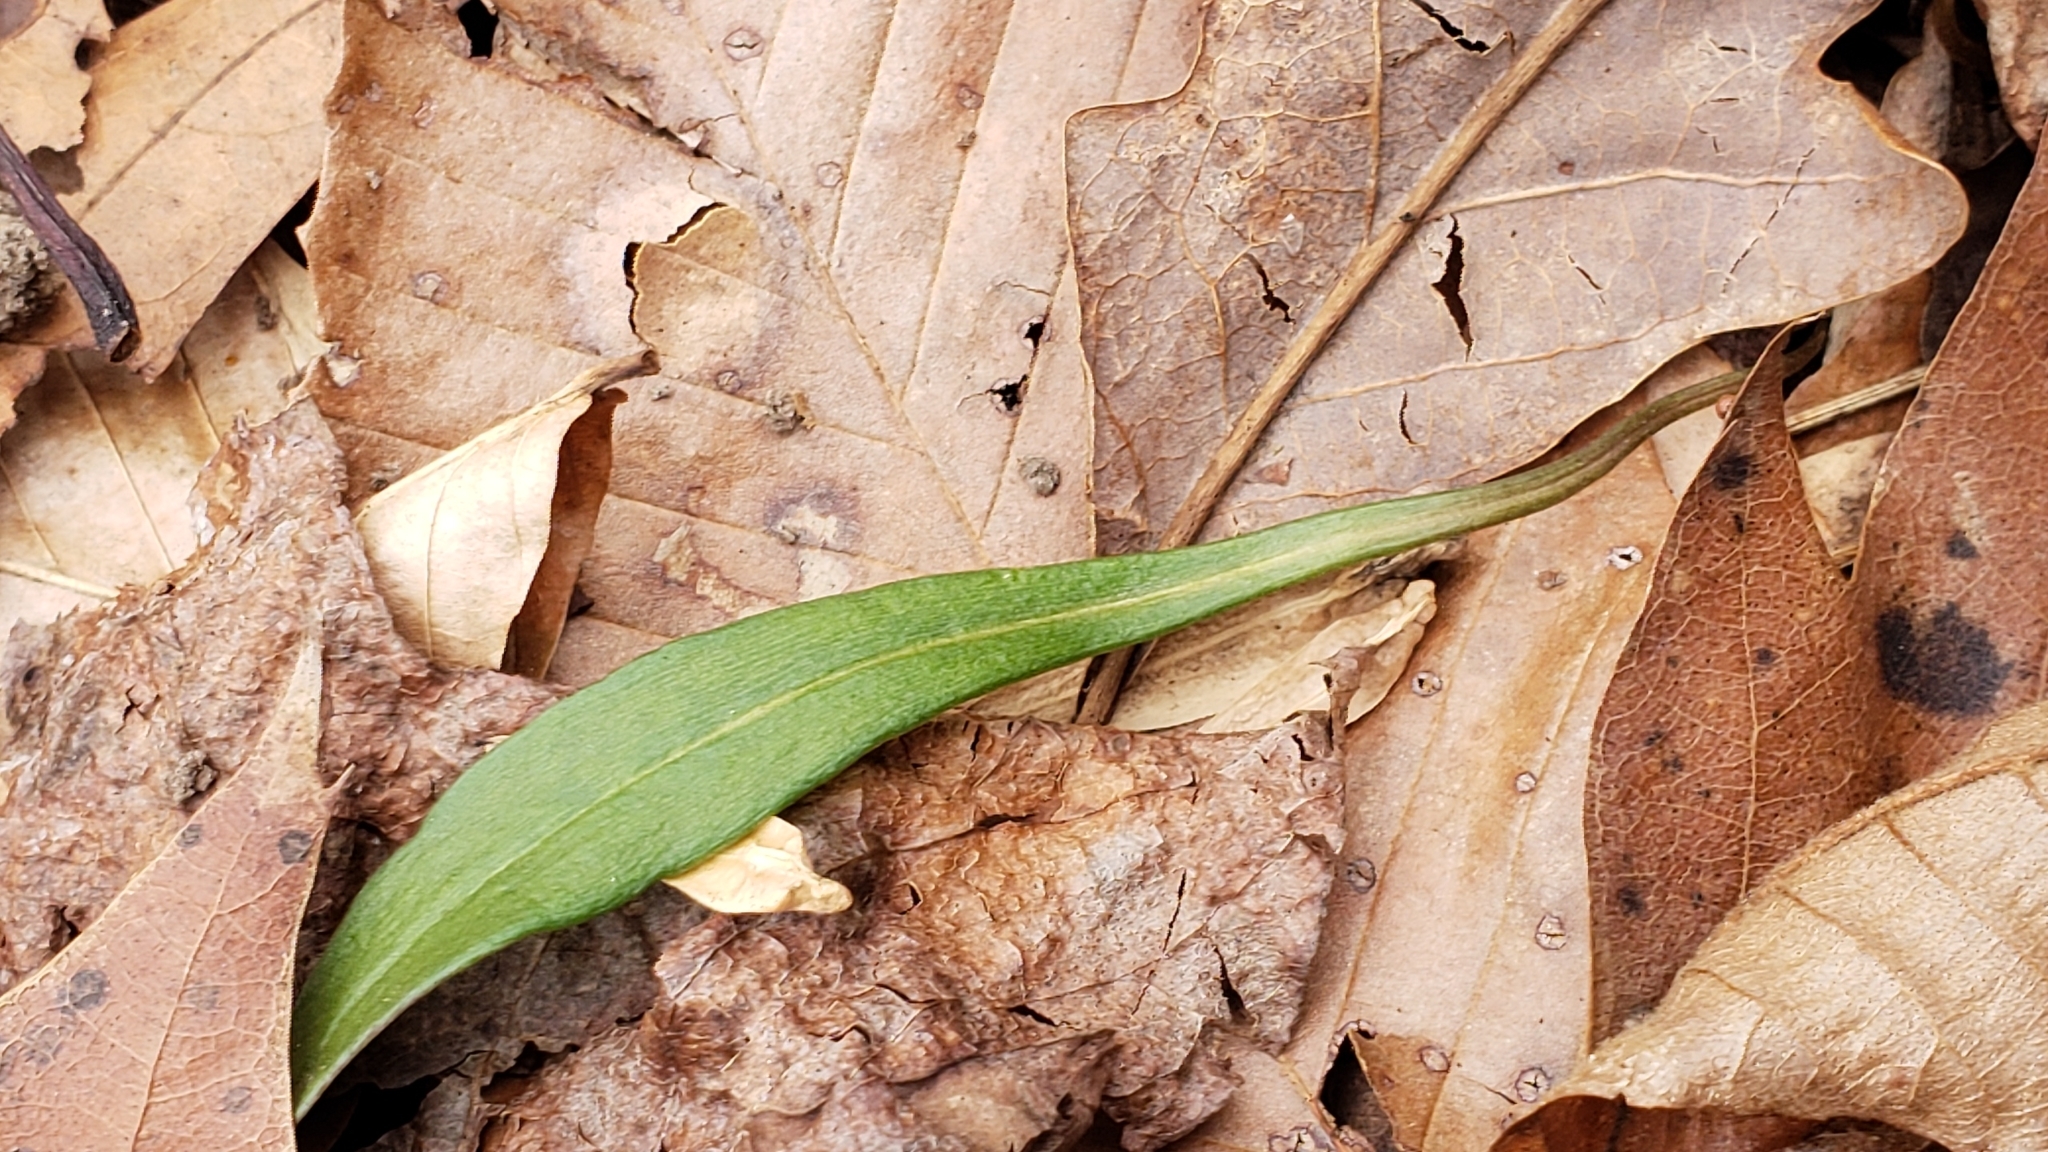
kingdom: Plantae
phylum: Tracheophyta
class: Magnoliopsida
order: Caryophyllales
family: Montiaceae
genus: Claytonia
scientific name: Claytonia virginica
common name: Virginia springbeauty
